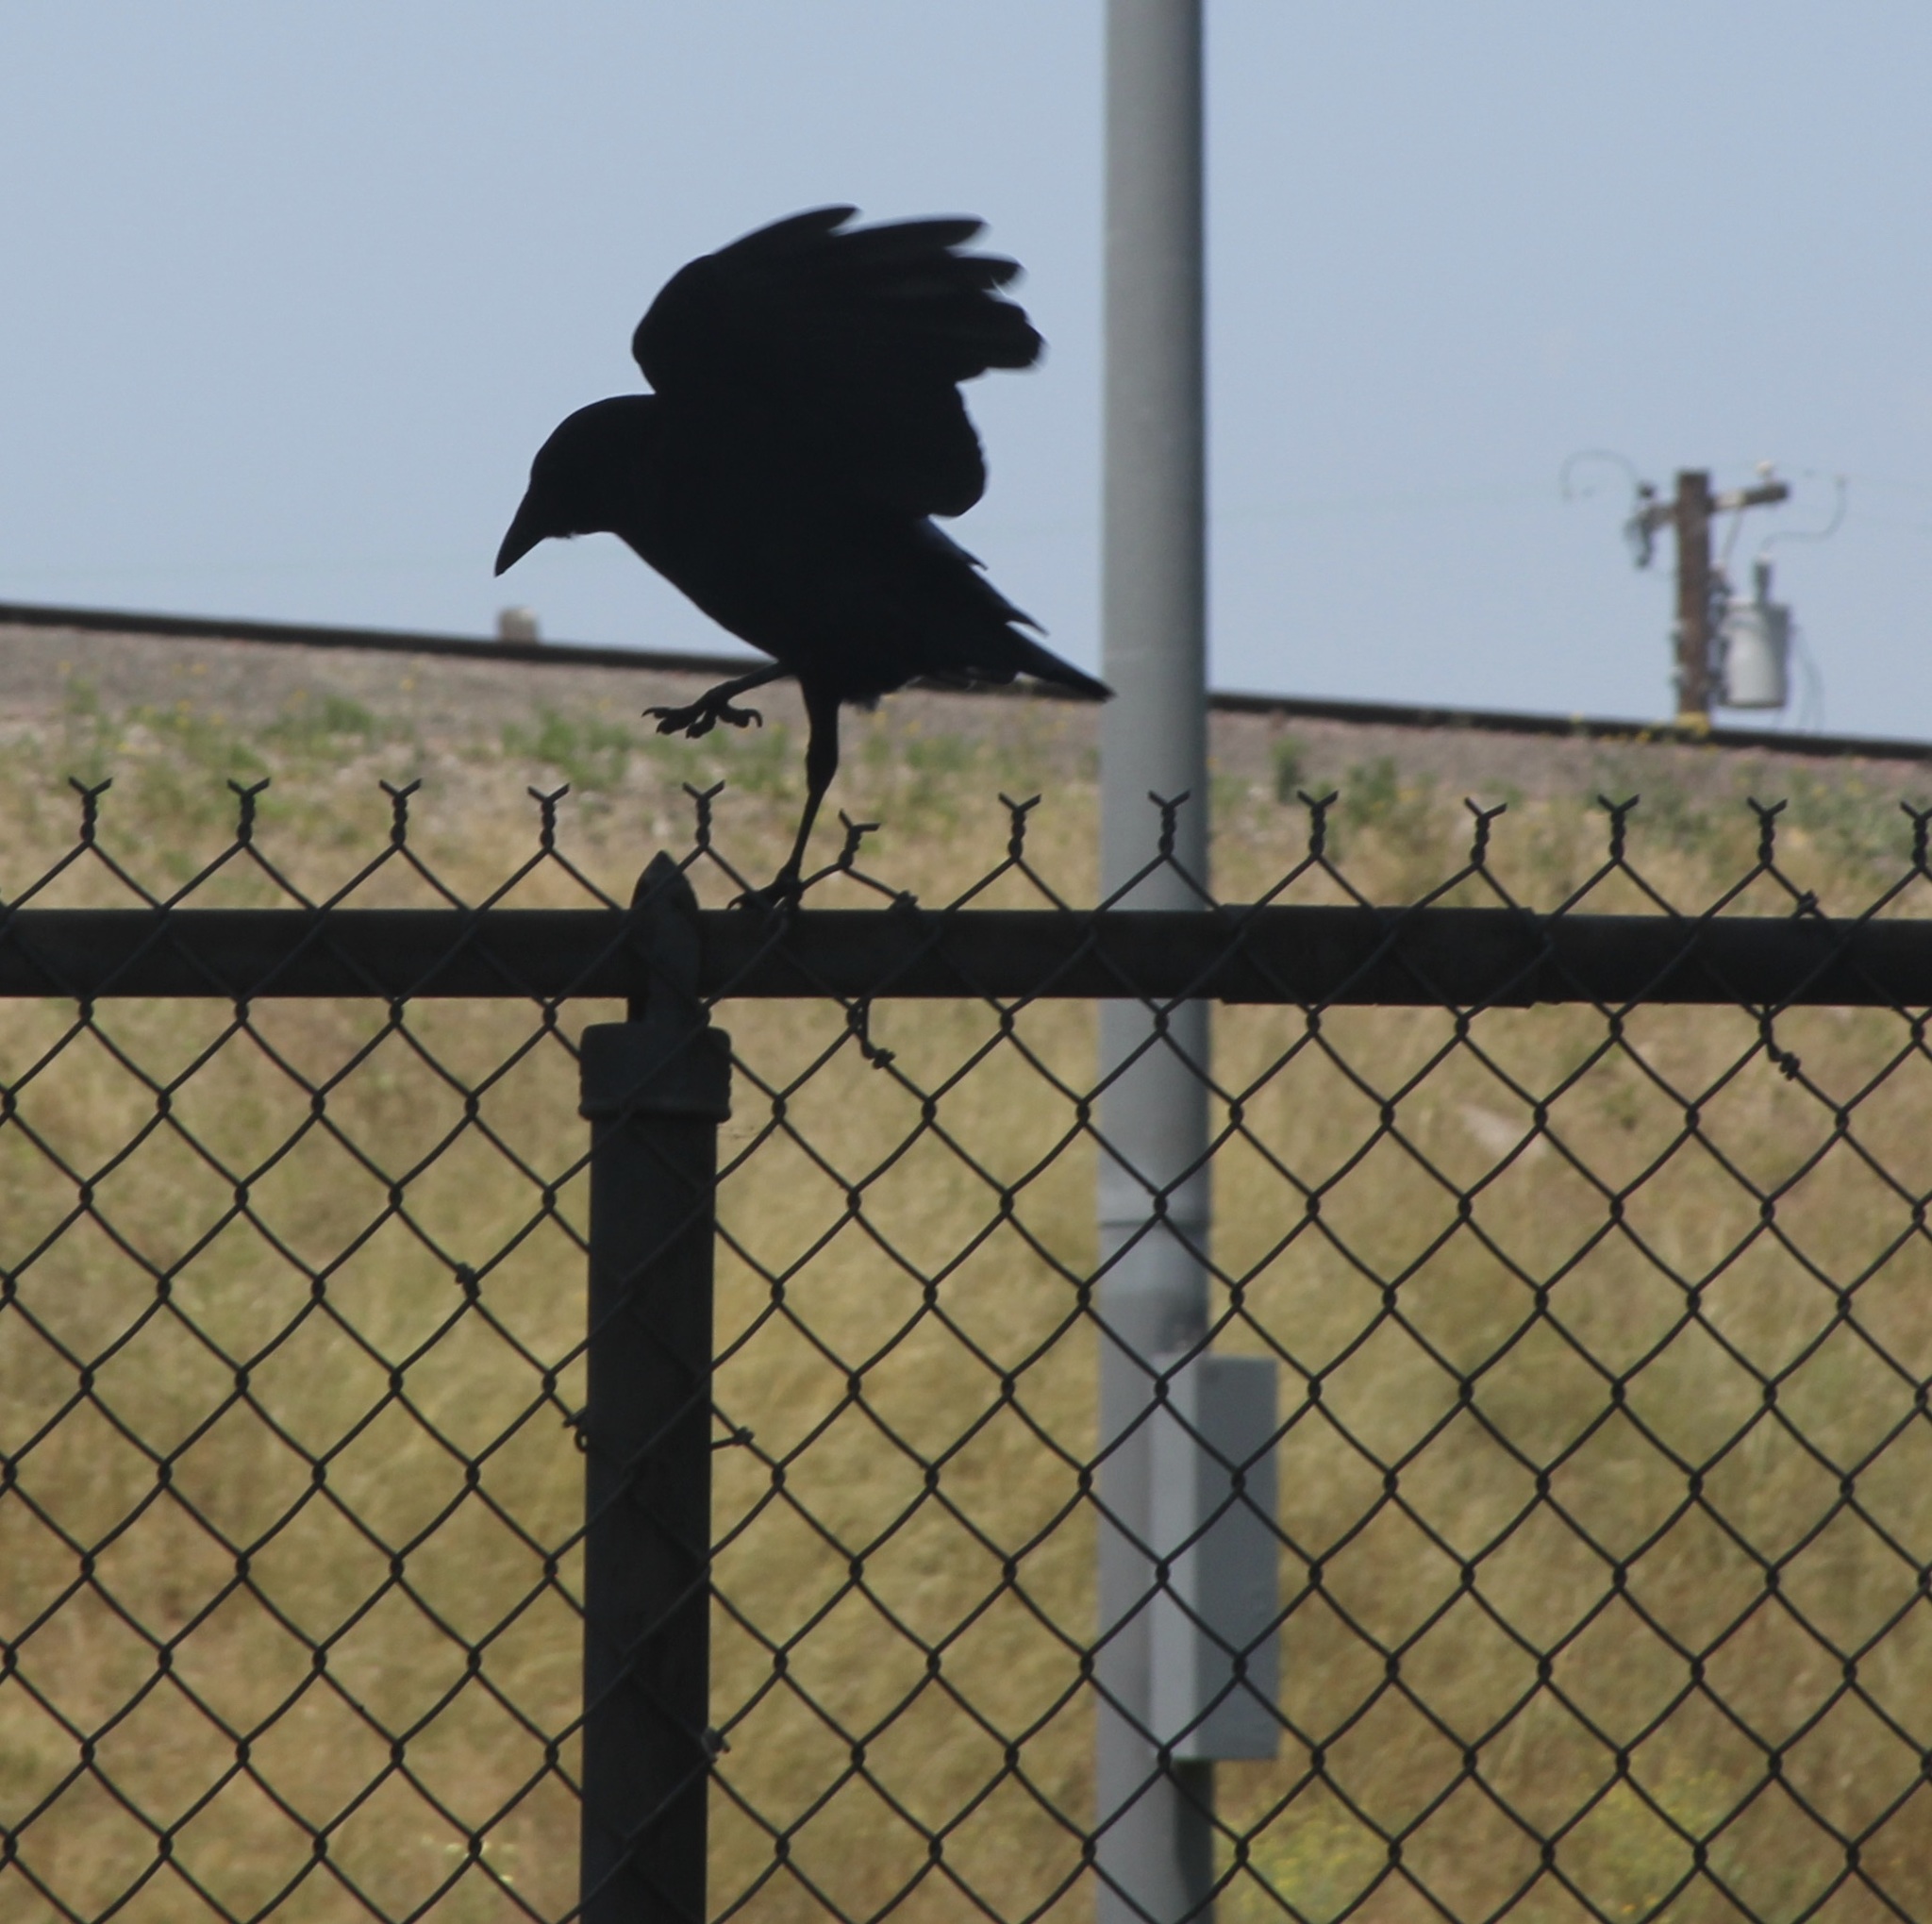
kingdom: Animalia
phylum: Chordata
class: Aves
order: Passeriformes
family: Corvidae
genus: Corvus
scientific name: Corvus brachyrhynchos
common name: American crow
